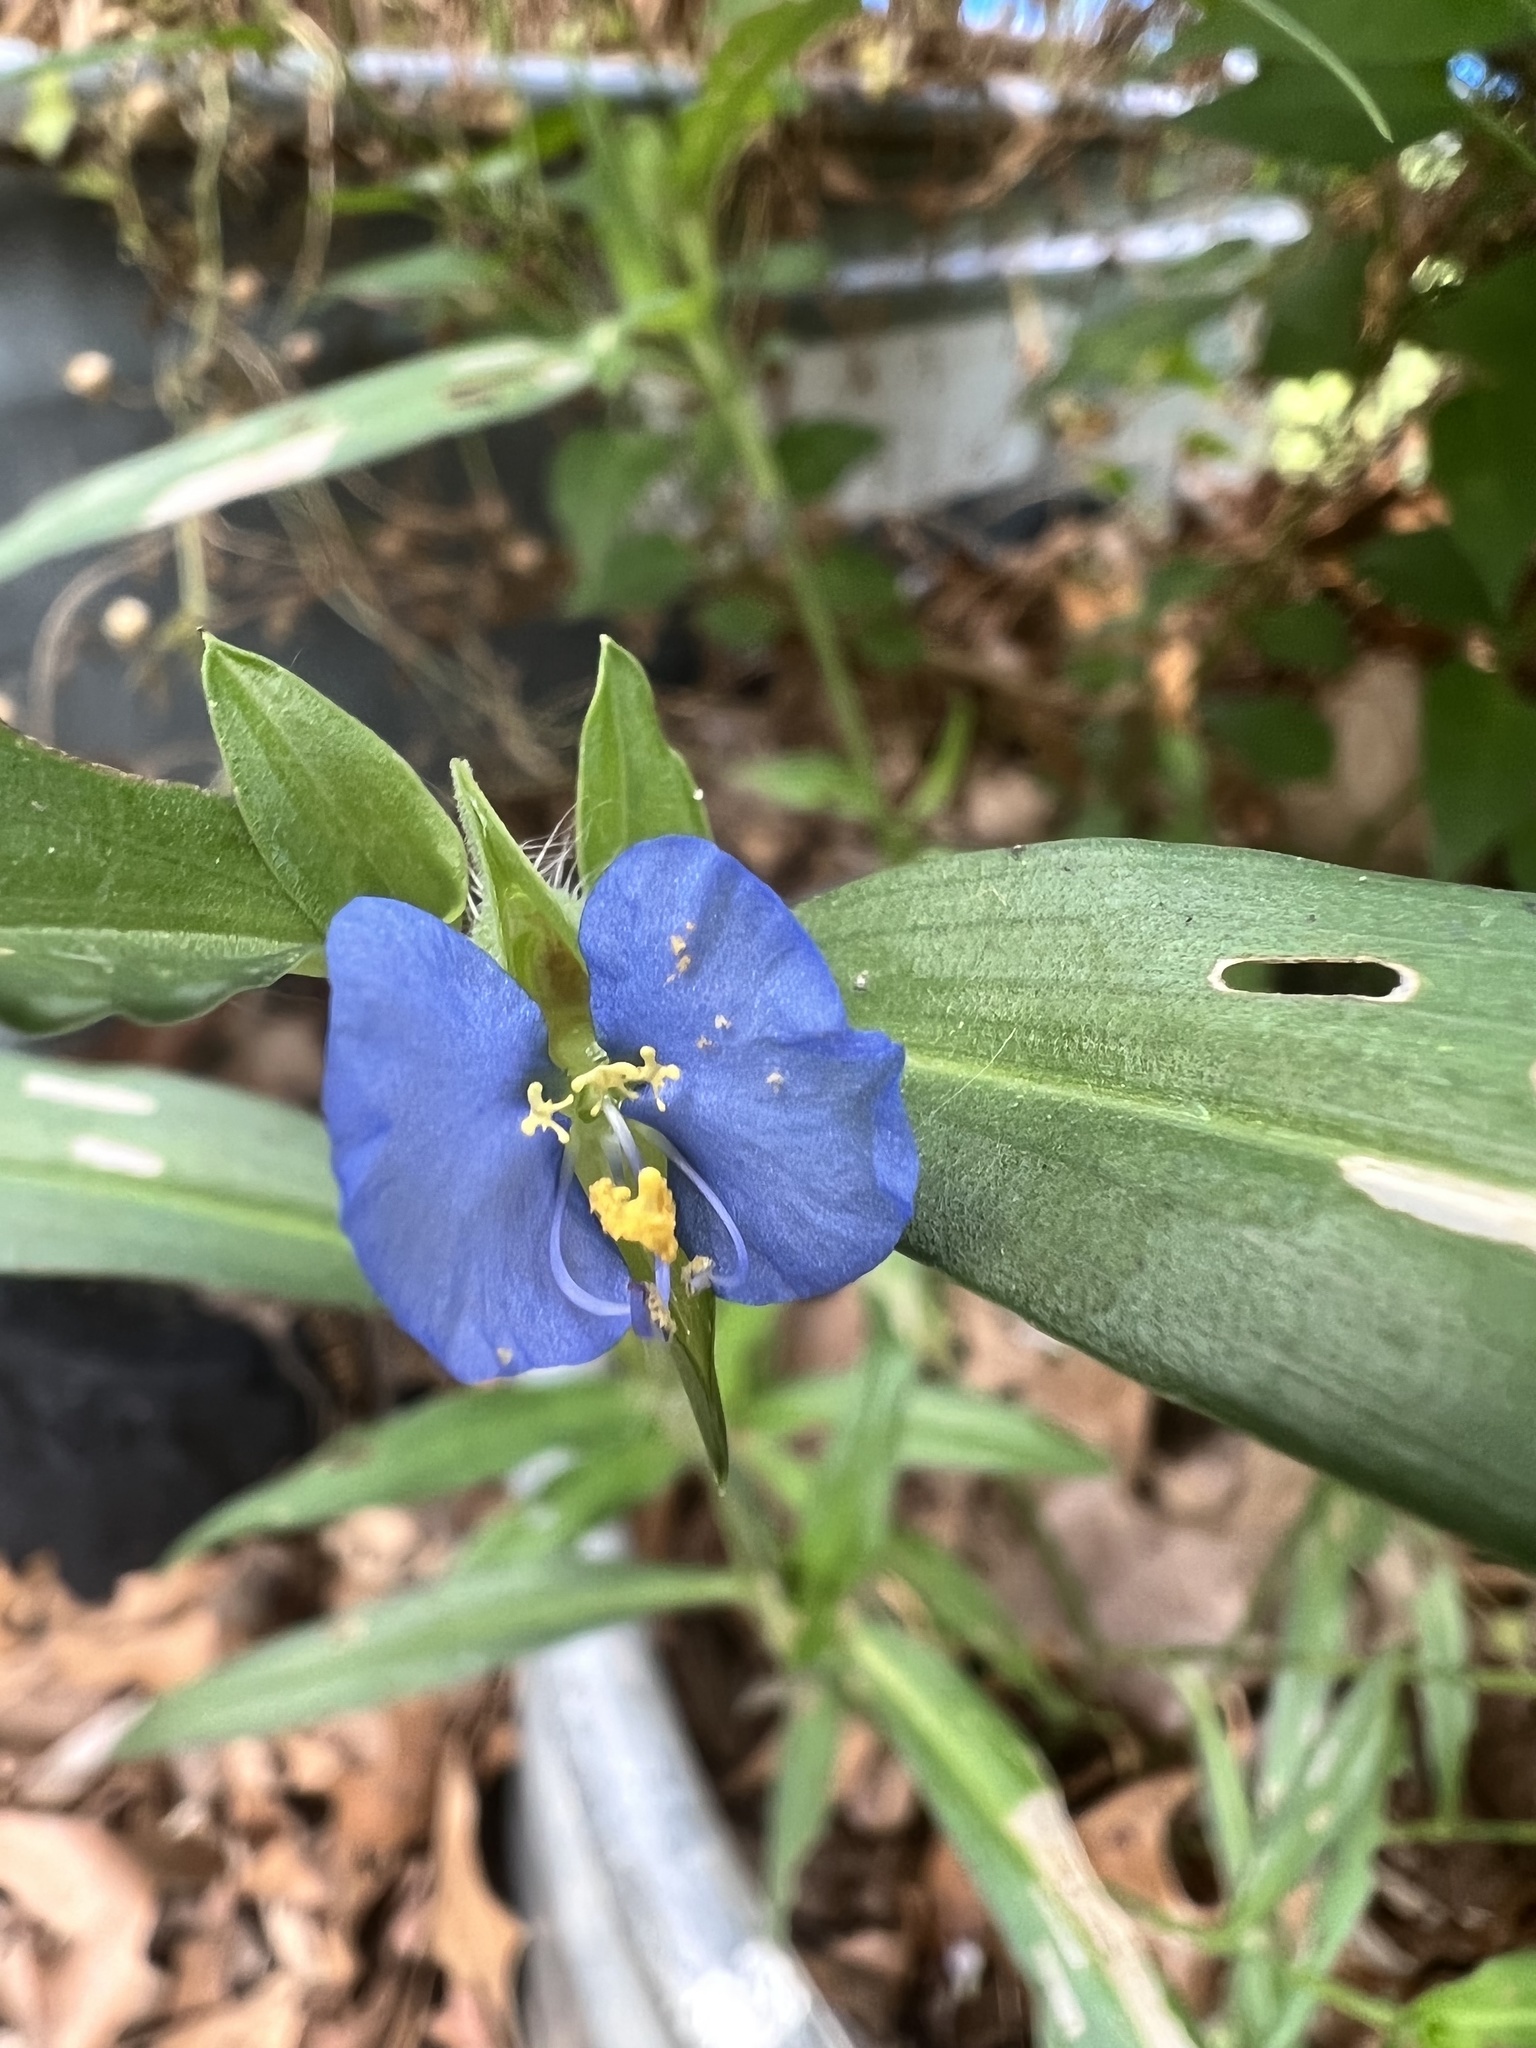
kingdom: Plantae
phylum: Tracheophyta
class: Liliopsida
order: Commelinales
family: Commelinaceae
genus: Commelina
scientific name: Commelina erecta
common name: Blousel blommetjie
